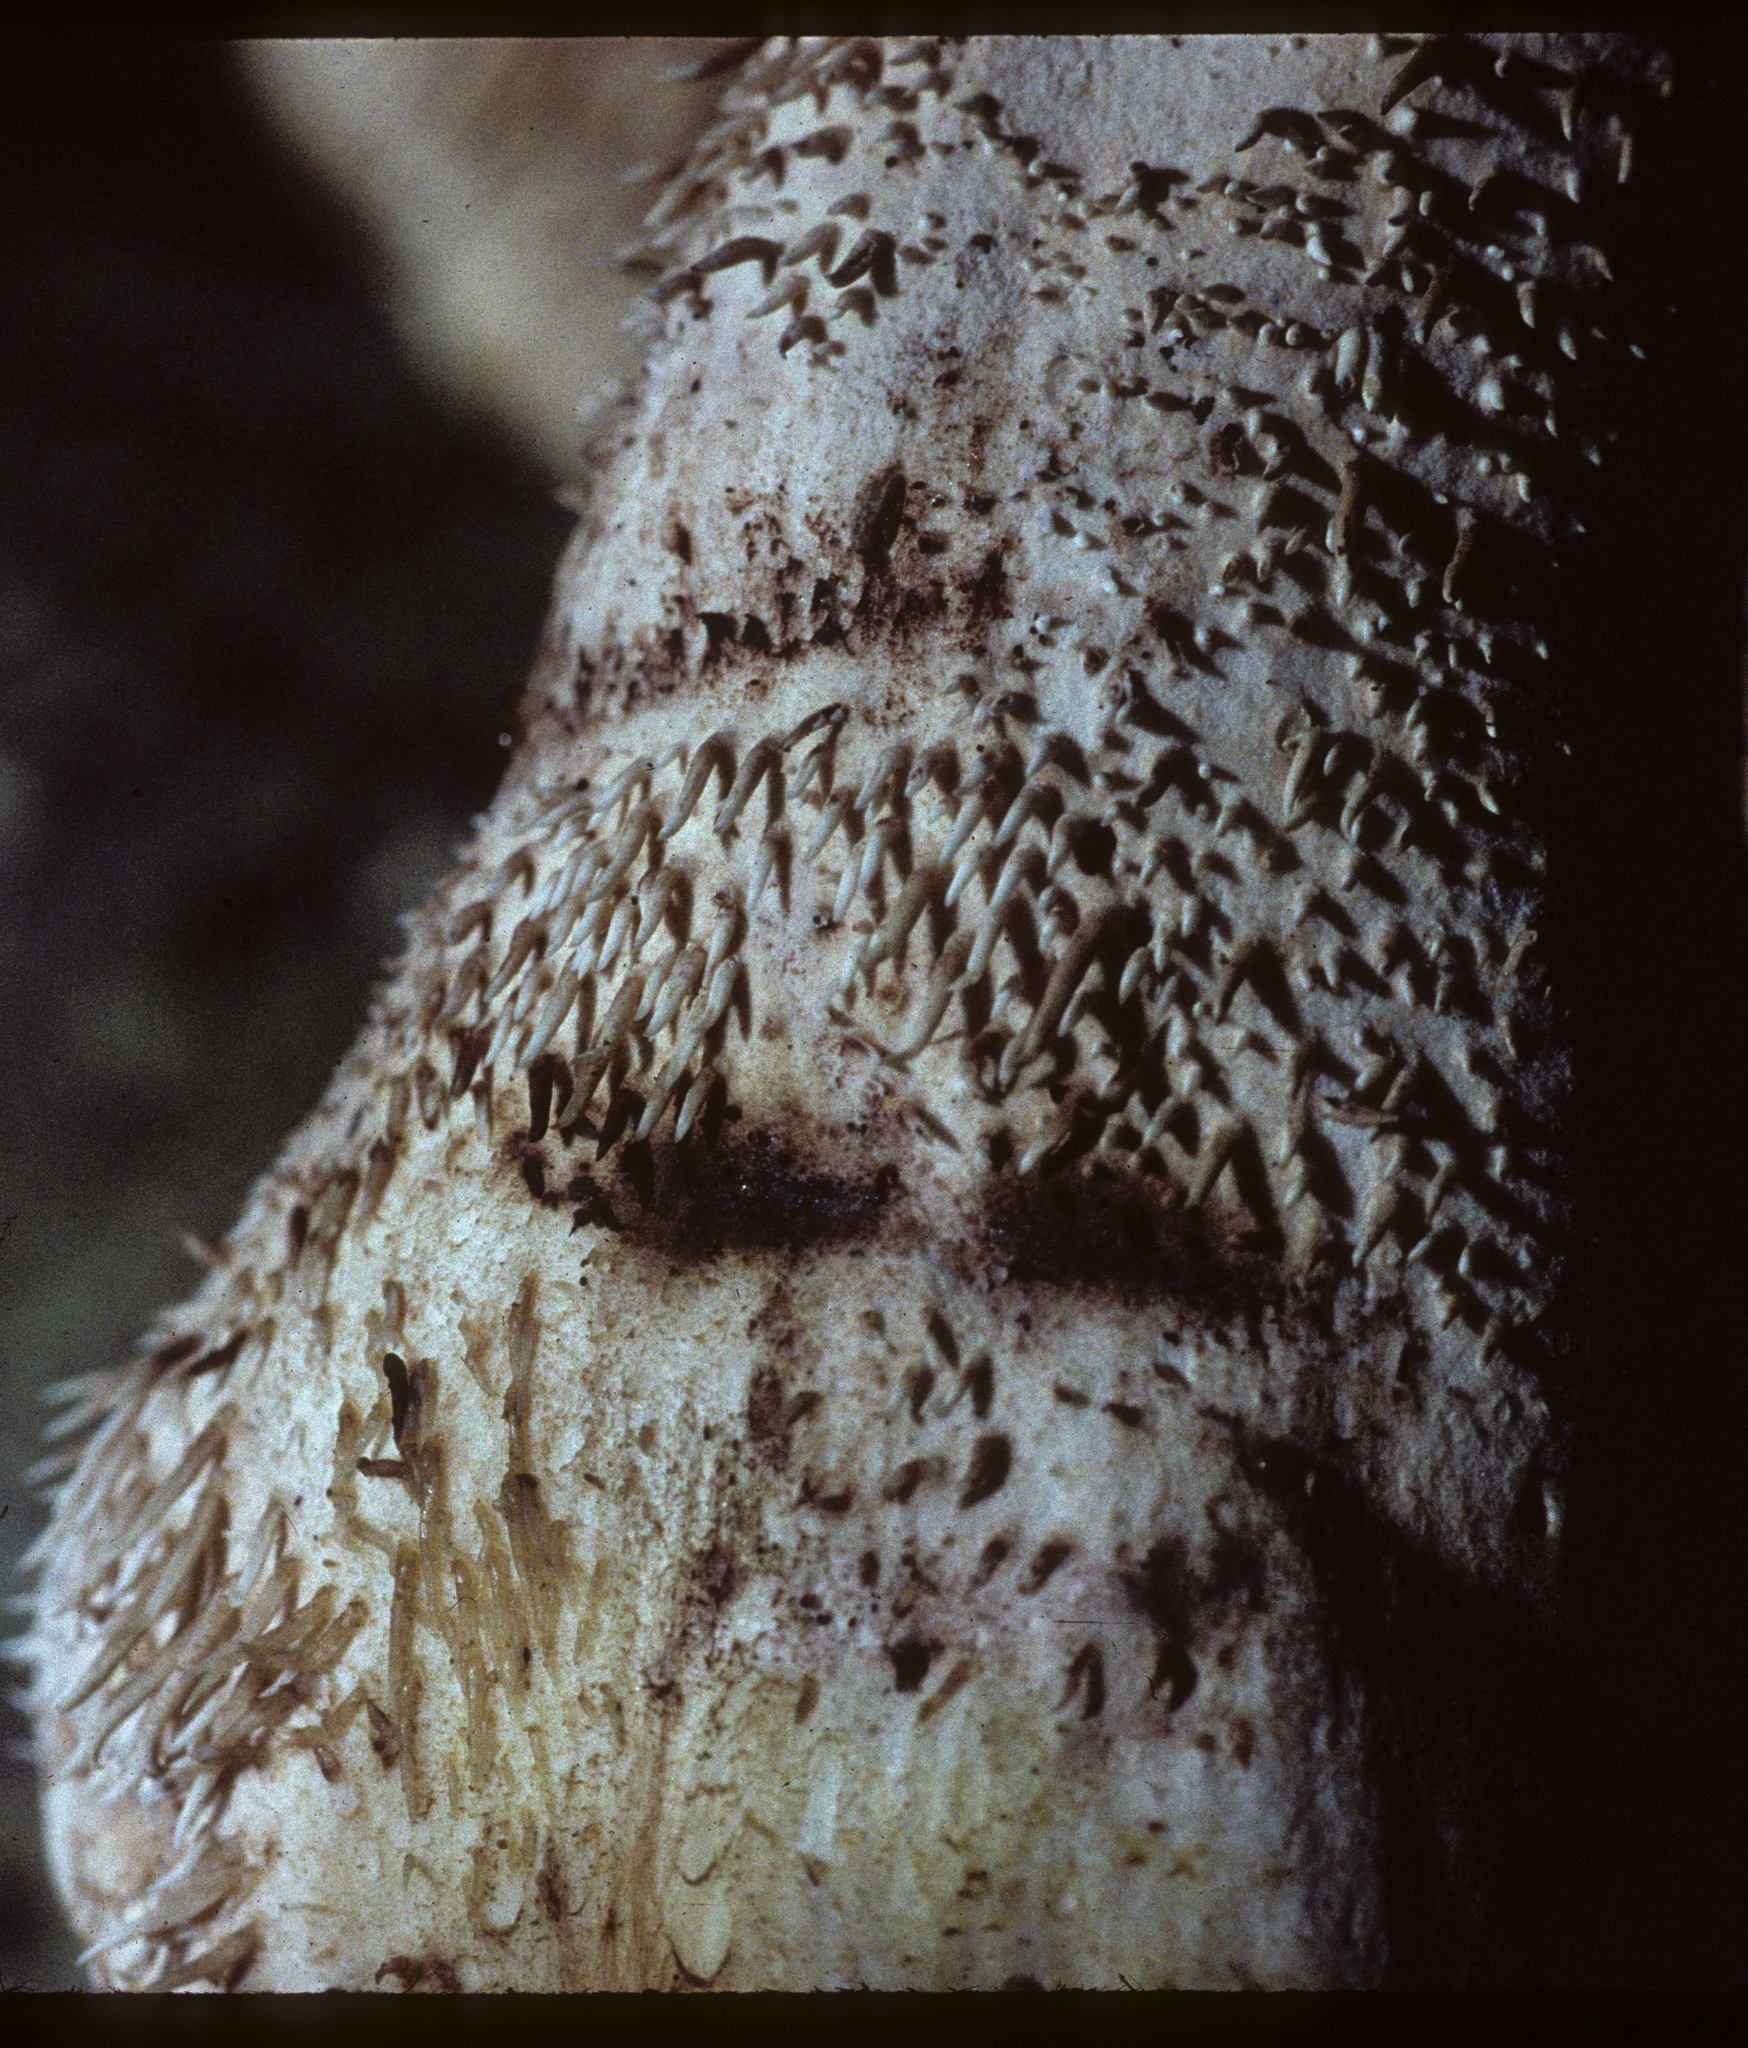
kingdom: Fungi
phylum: Basidiomycota
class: Agaricomycetes
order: Thelephorales
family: Bankeraceae
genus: Sarcodon
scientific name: Sarcodon imbricatus
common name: Shingled hedgehog
